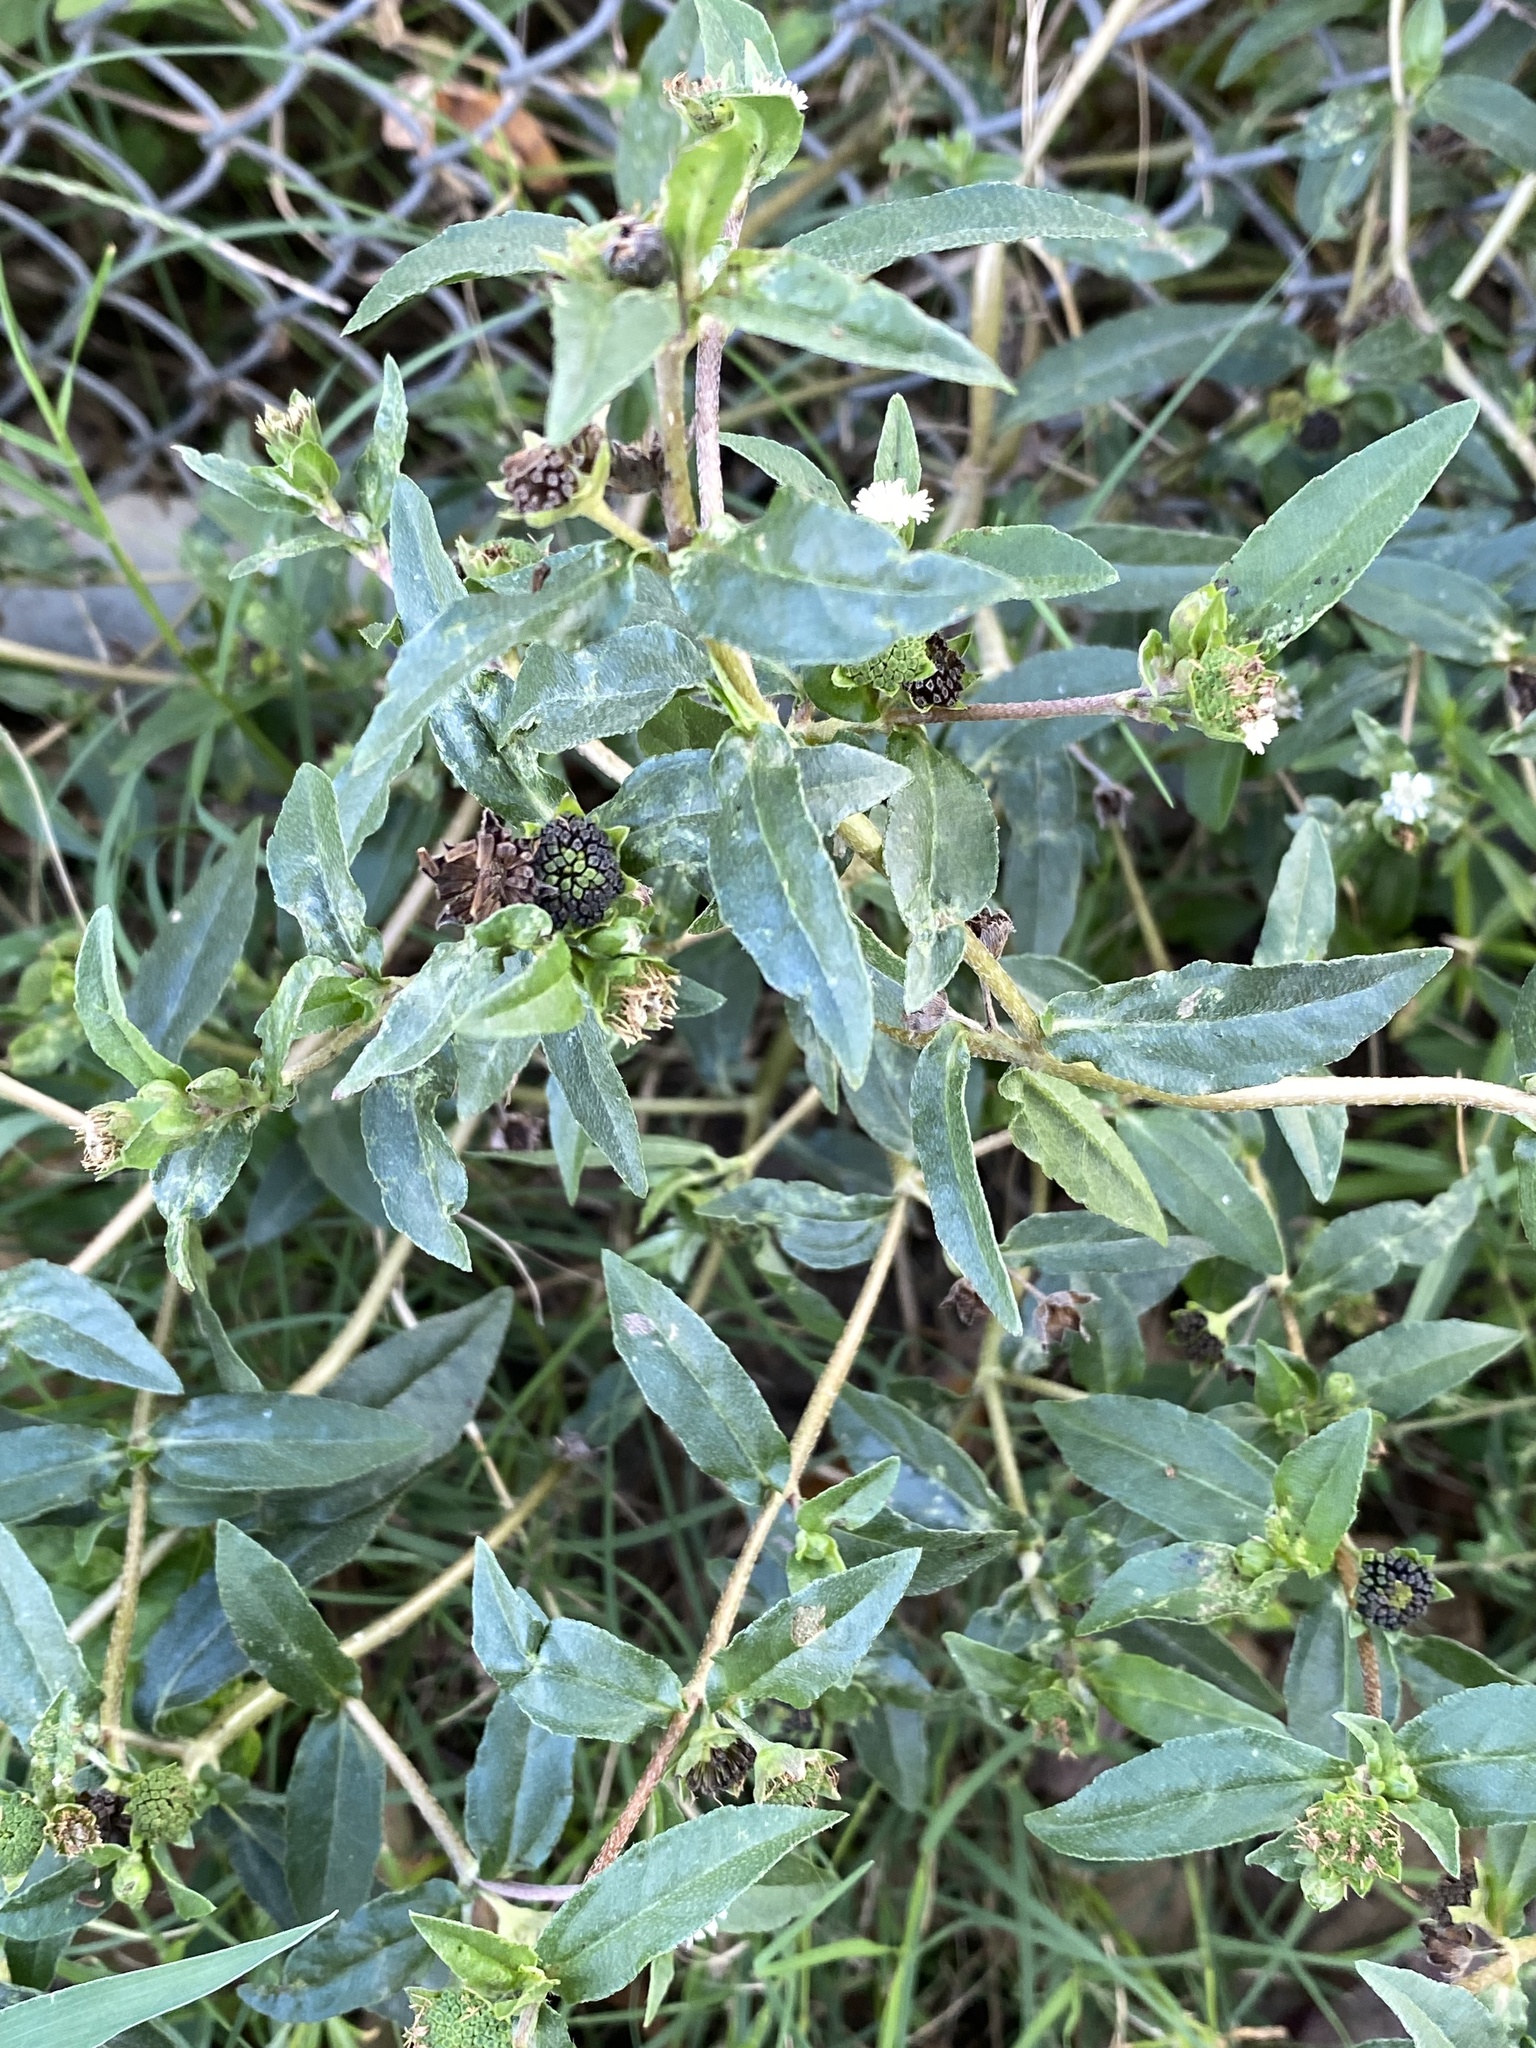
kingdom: Plantae
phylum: Tracheophyta
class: Magnoliopsida
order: Asterales
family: Asteraceae
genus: Eclipta
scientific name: Eclipta prostrata
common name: False daisy
